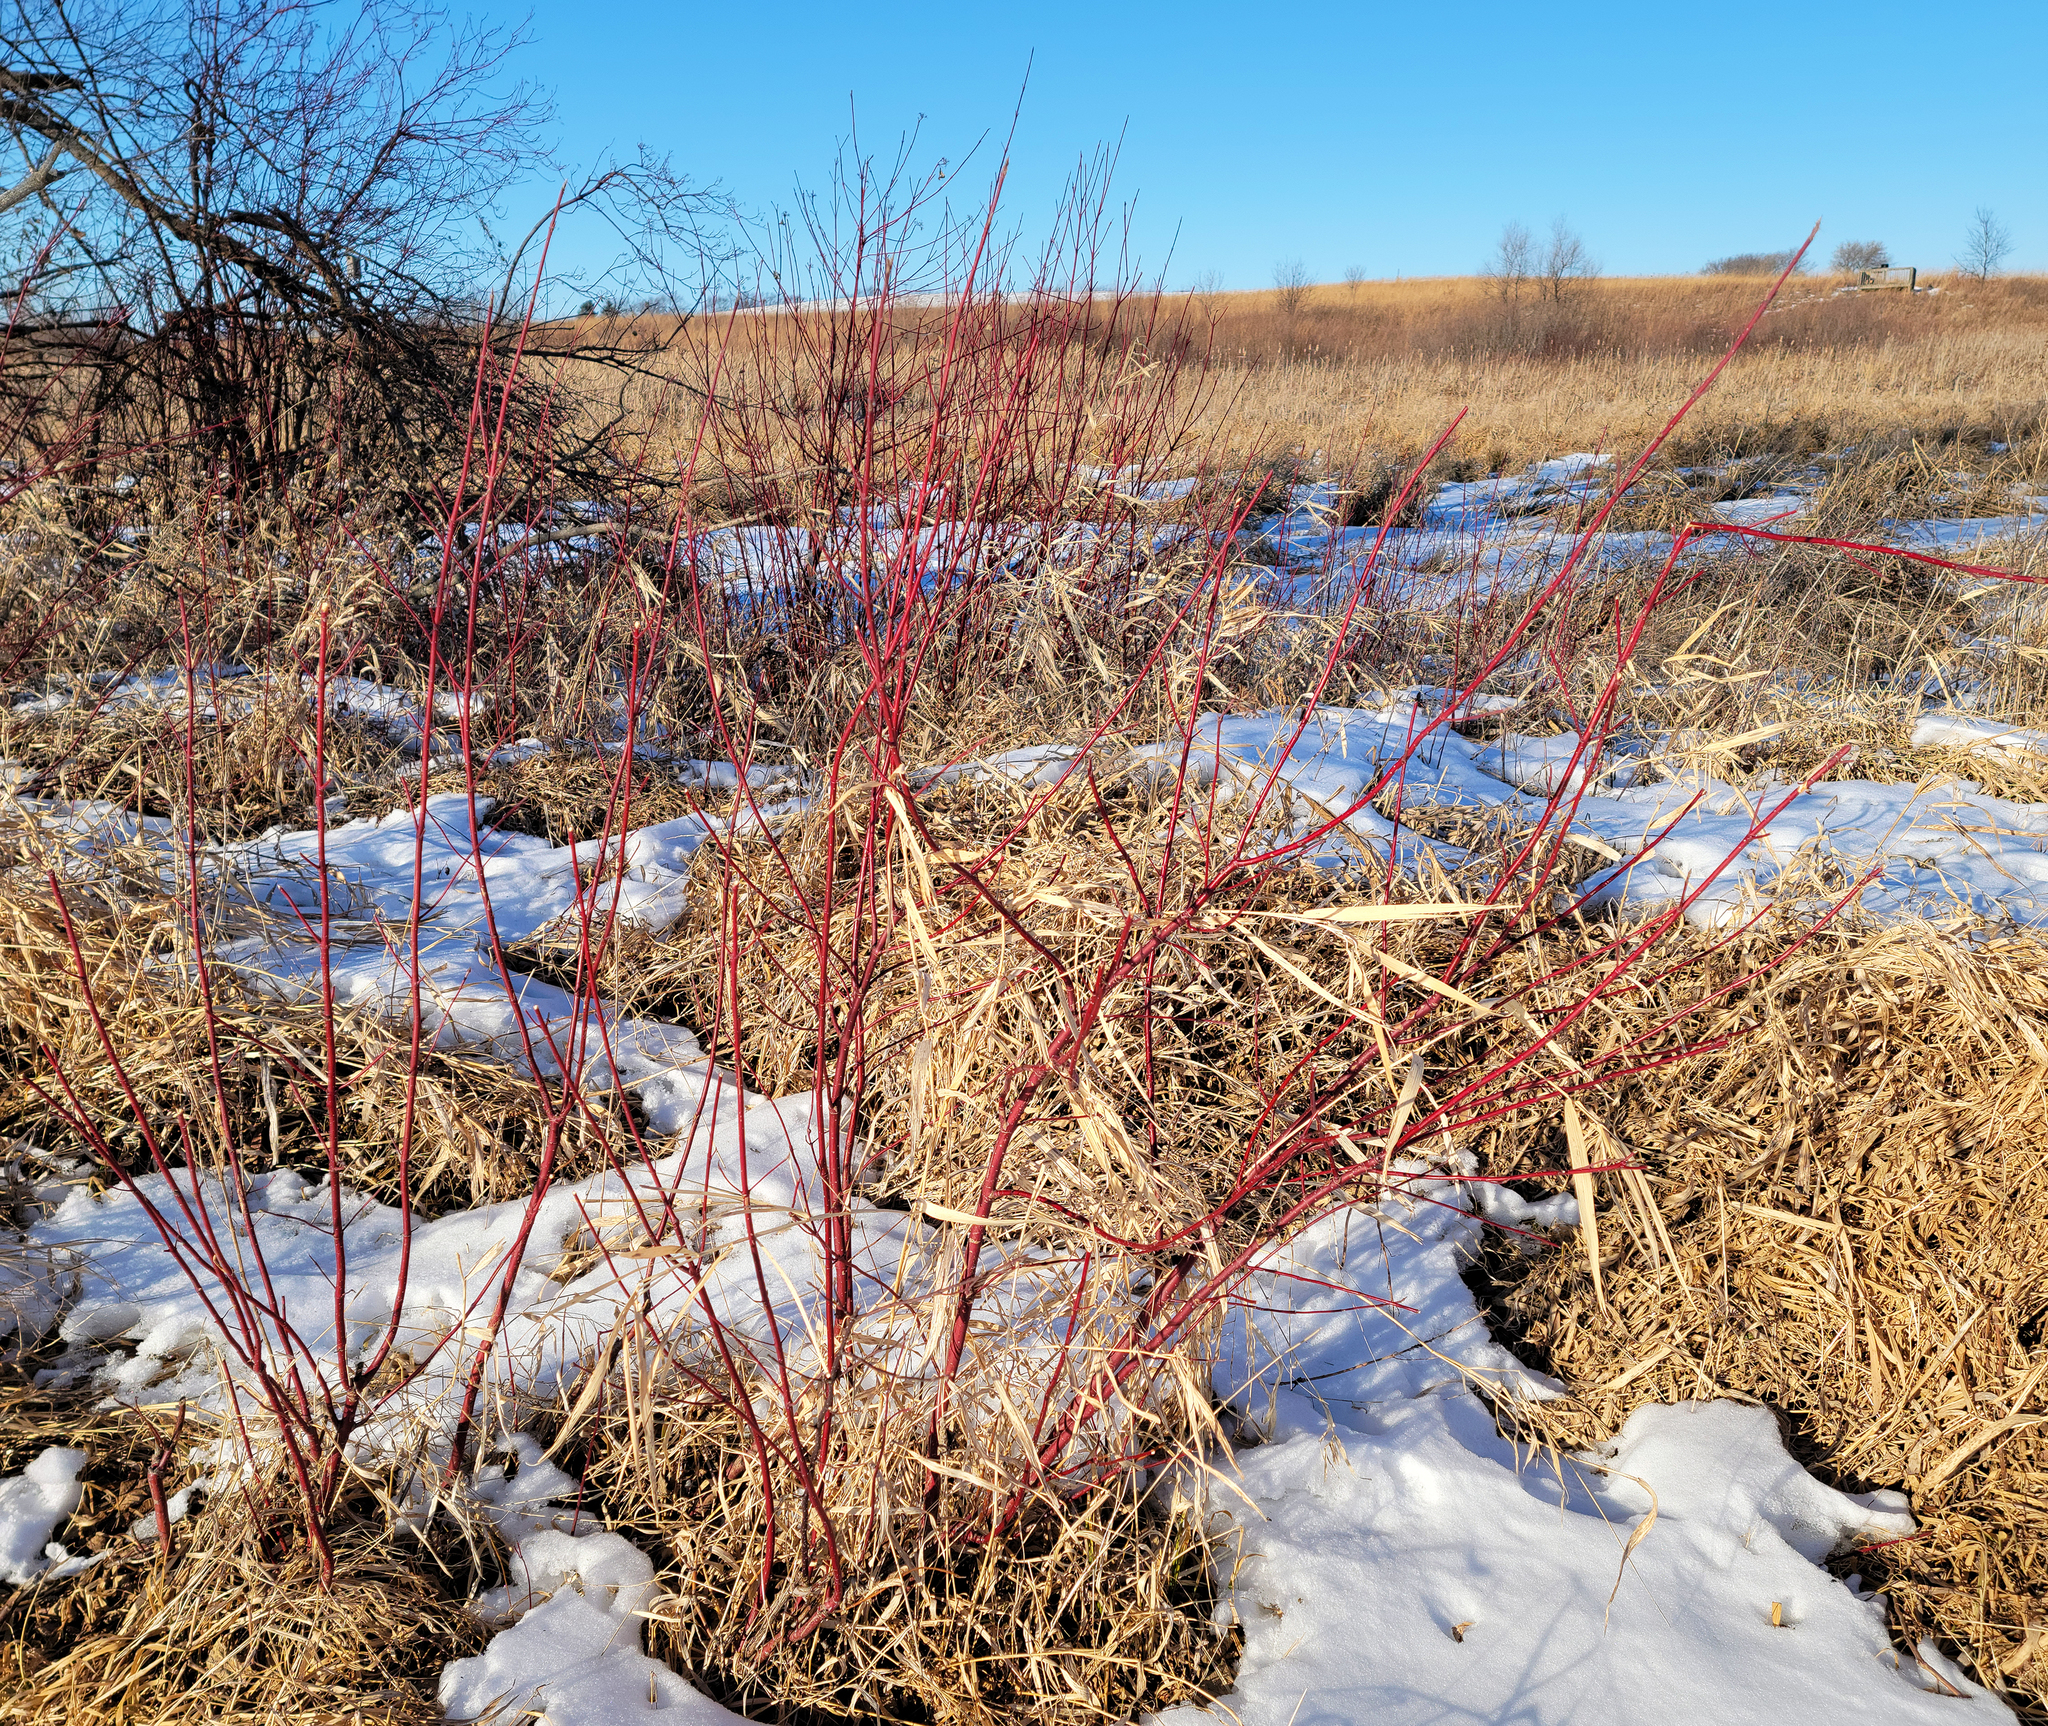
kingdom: Plantae
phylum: Tracheophyta
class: Magnoliopsida
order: Cornales
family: Cornaceae
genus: Cornus
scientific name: Cornus sericea
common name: Red-osier dogwood
